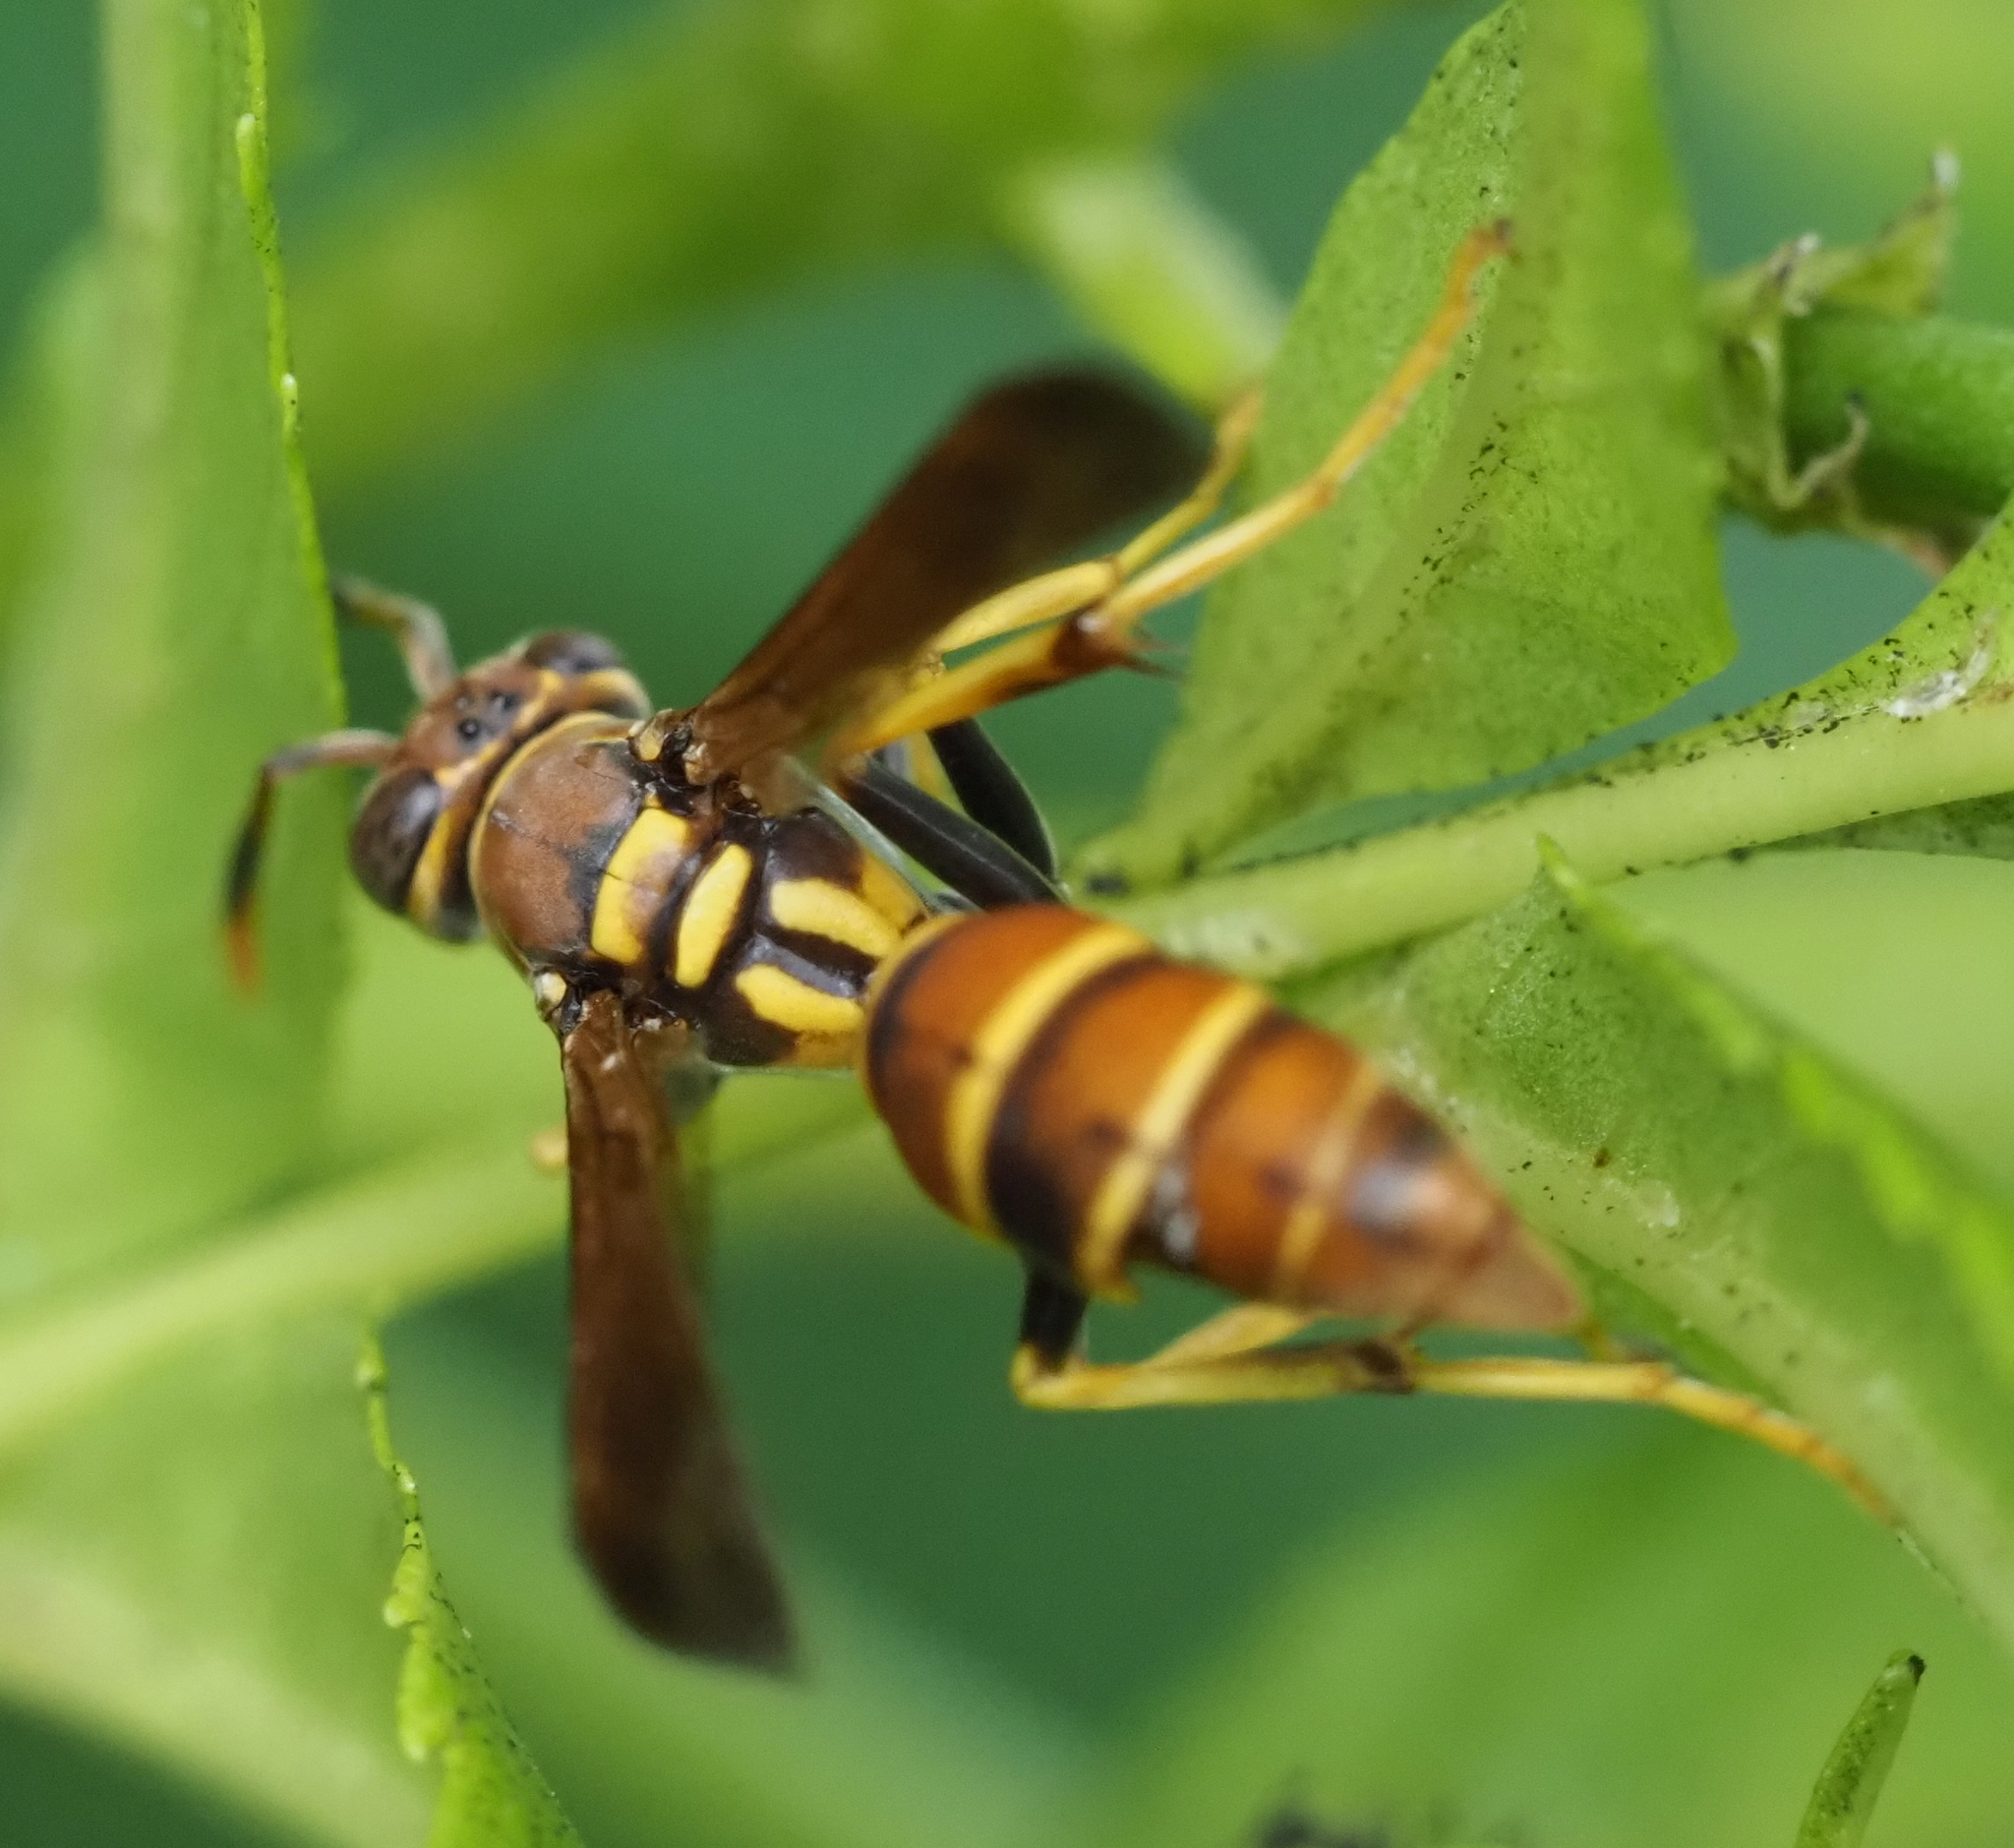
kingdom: Animalia
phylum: Arthropoda
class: Insecta
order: Hymenoptera
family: Eumenidae
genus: Polistes
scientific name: Polistes crinitus
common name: Jack spaniard
